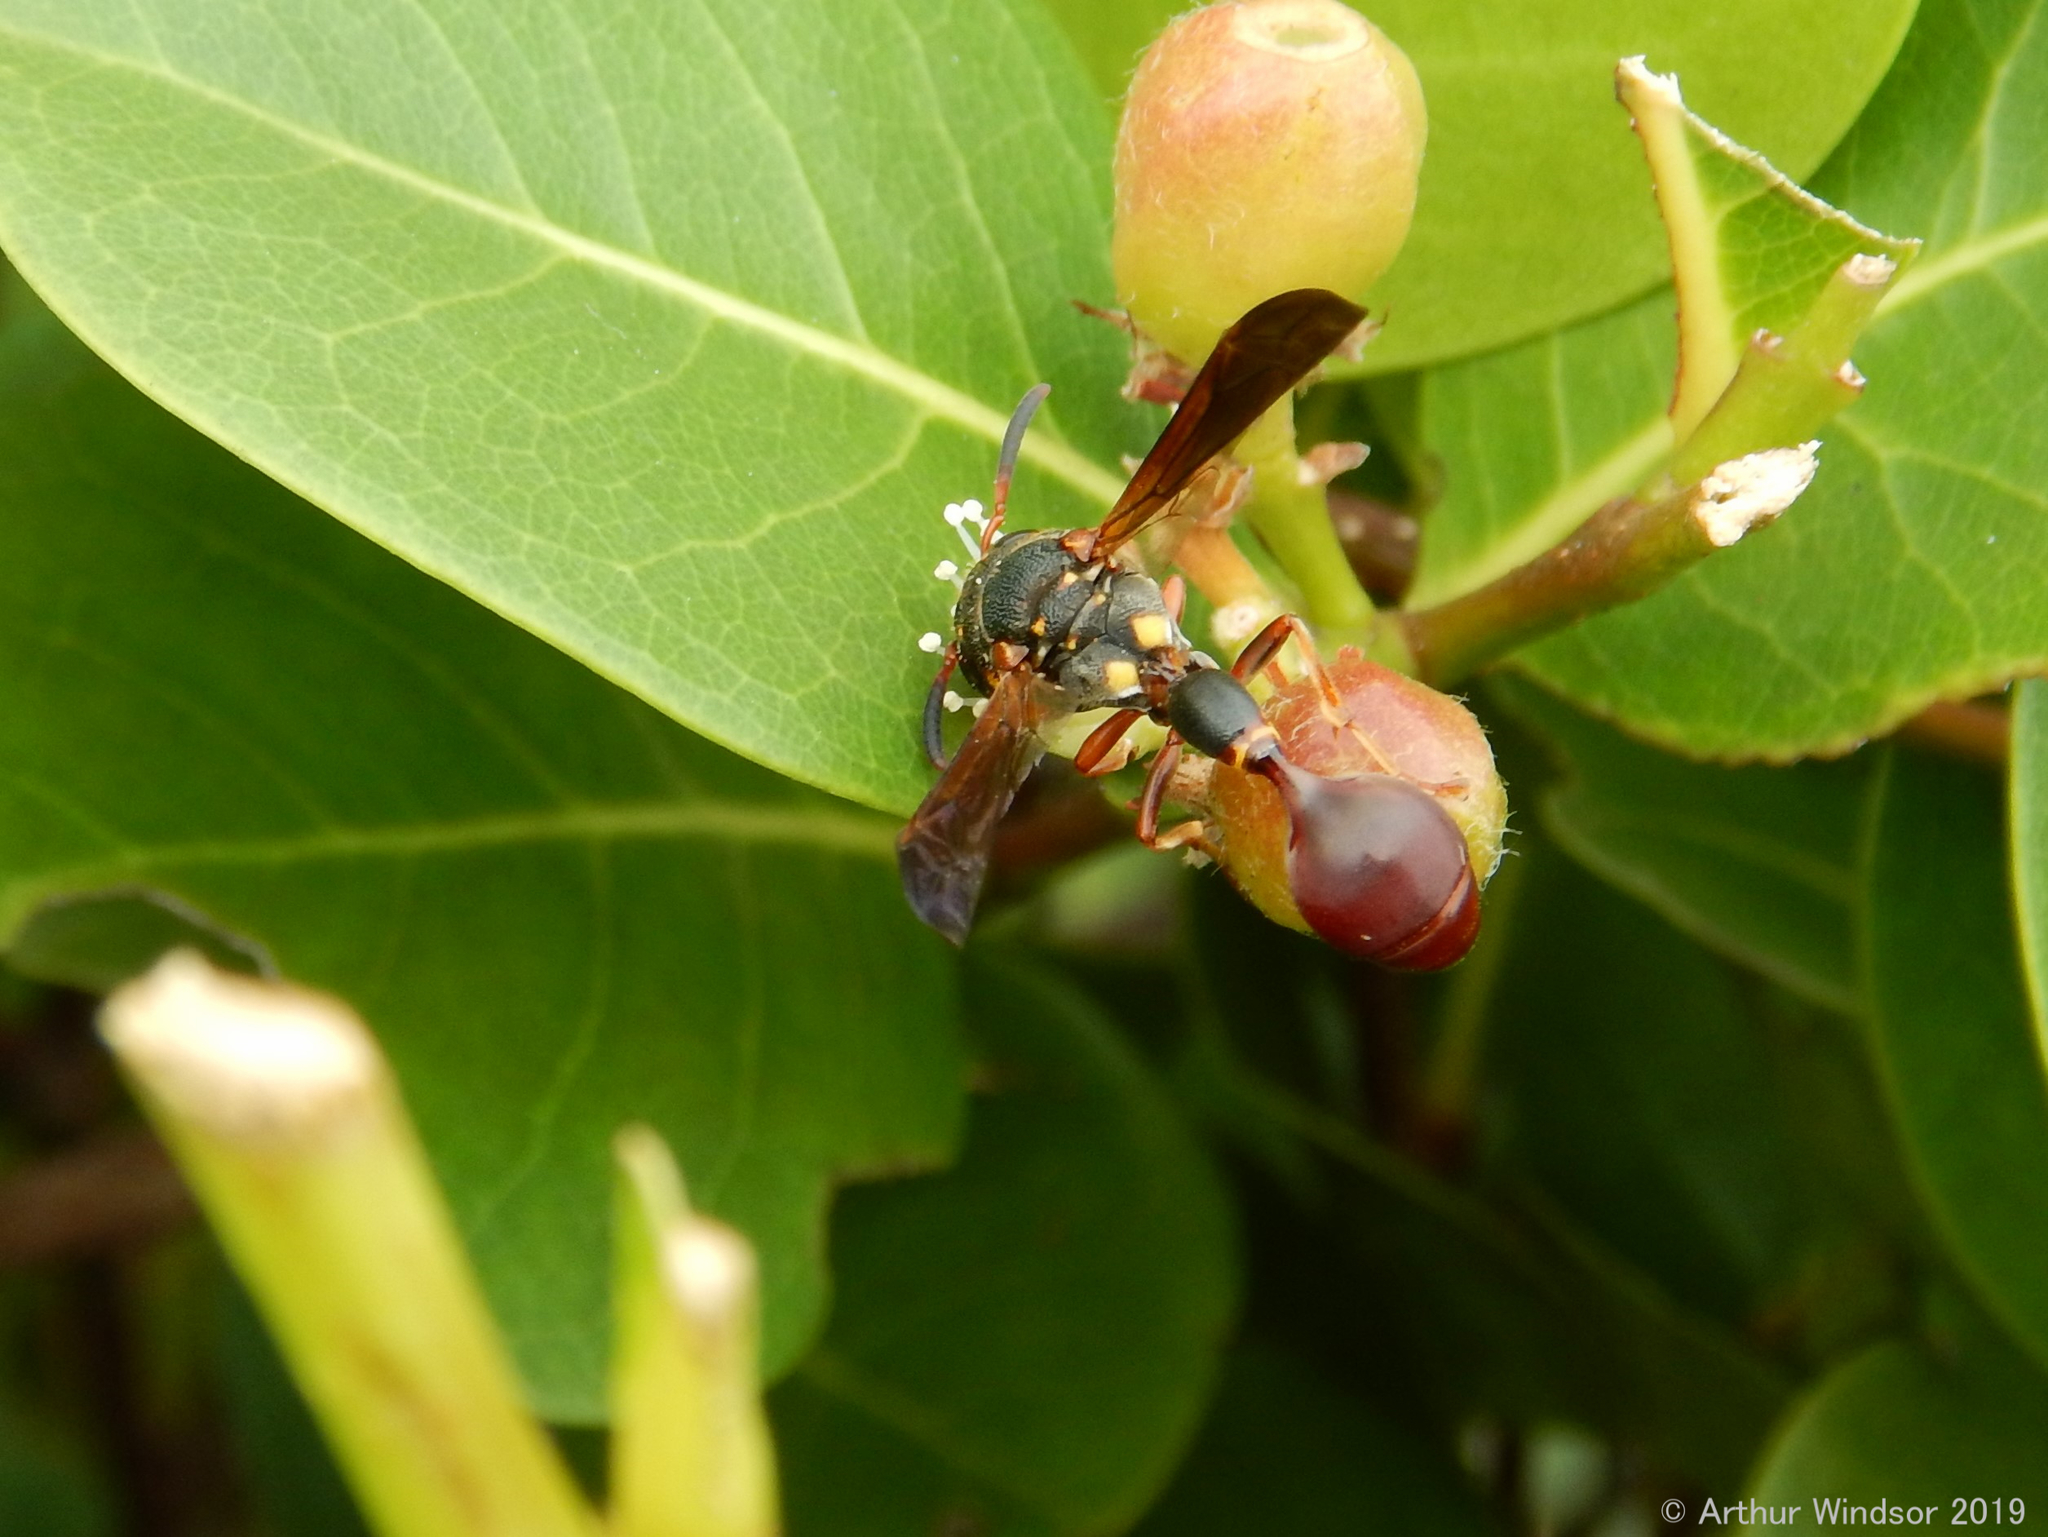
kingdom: Animalia
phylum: Arthropoda
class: Insecta
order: Hymenoptera
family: Eumenidae
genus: Zethus
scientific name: Zethus slossonae
